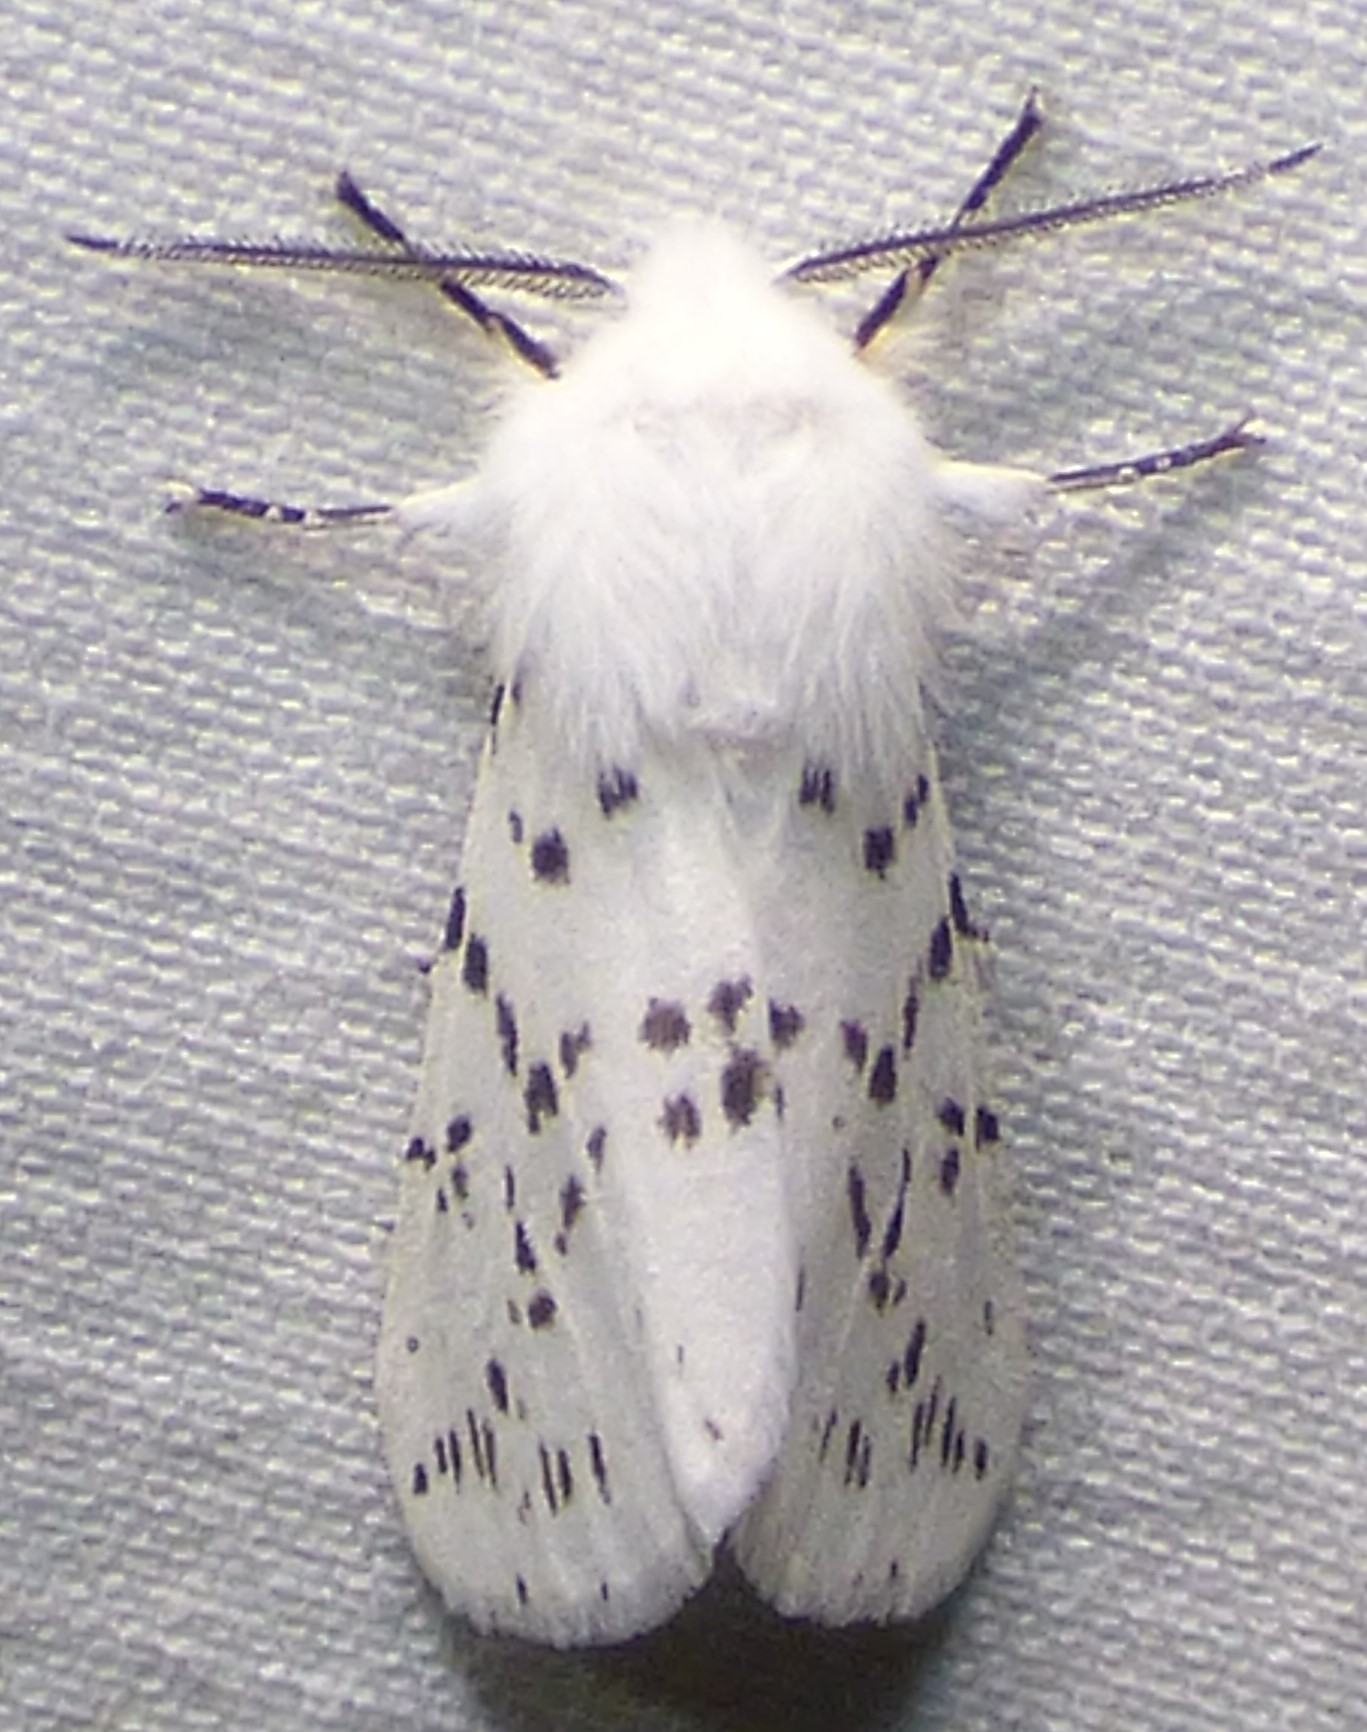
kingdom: Animalia
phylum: Arthropoda
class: Insecta
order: Lepidoptera
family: Erebidae
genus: Hyphantria
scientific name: Hyphantria cunea
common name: American white moth
